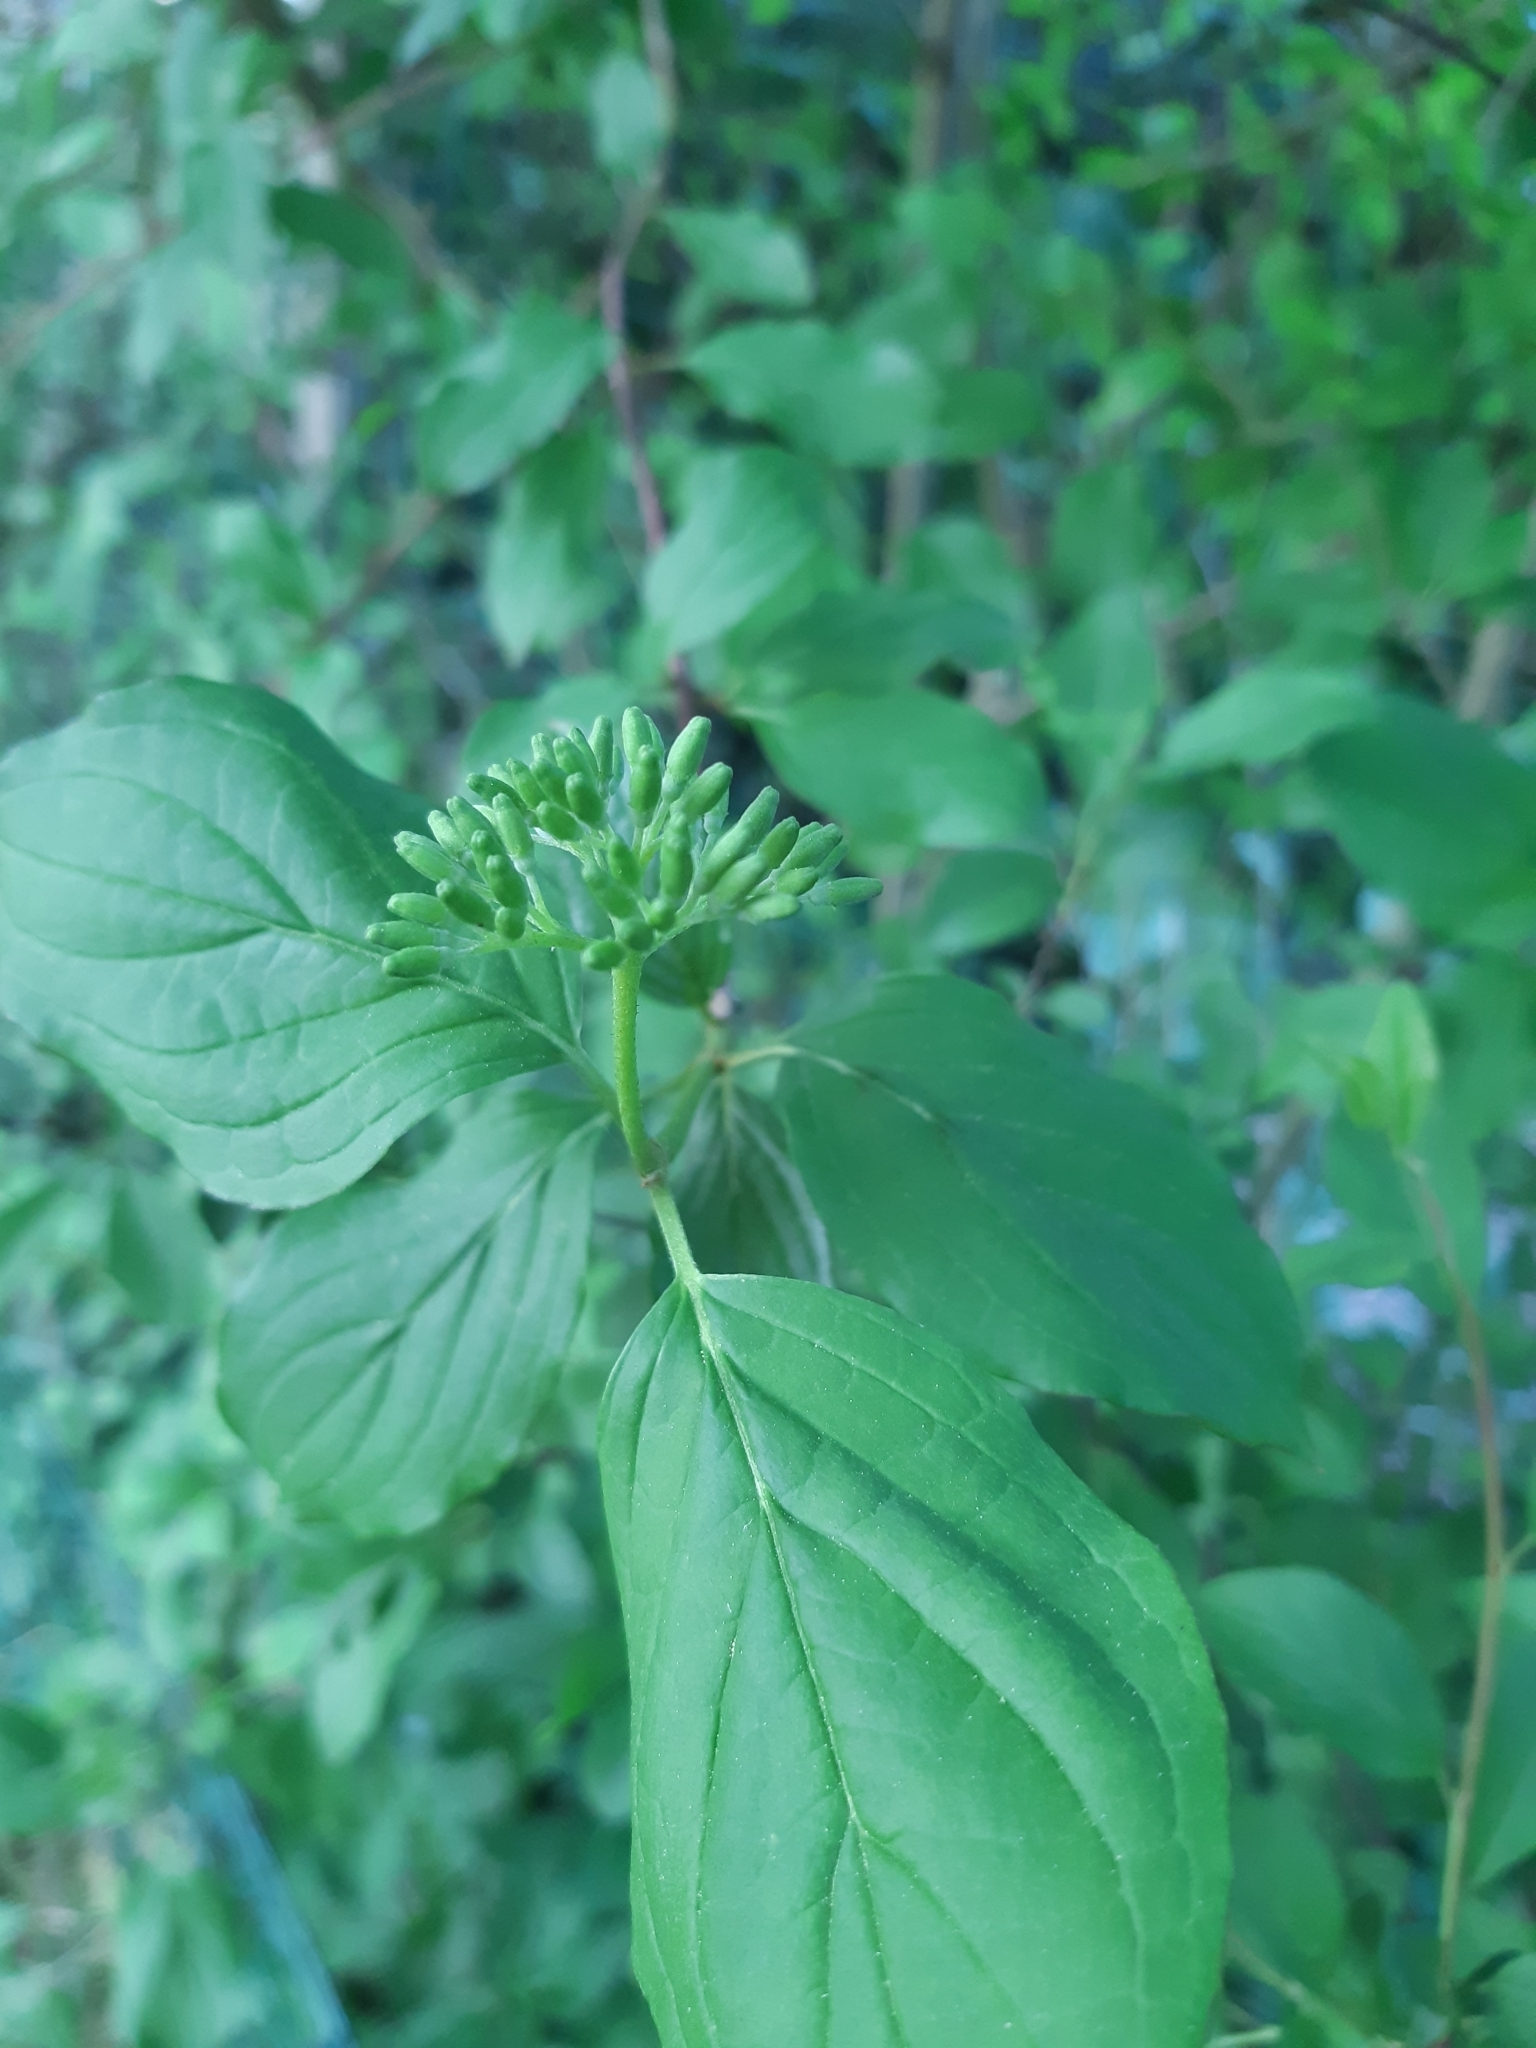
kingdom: Plantae
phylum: Tracheophyta
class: Magnoliopsida
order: Cornales
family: Cornaceae
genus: Cornus
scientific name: Cornus sanguinea
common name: Dogwood
